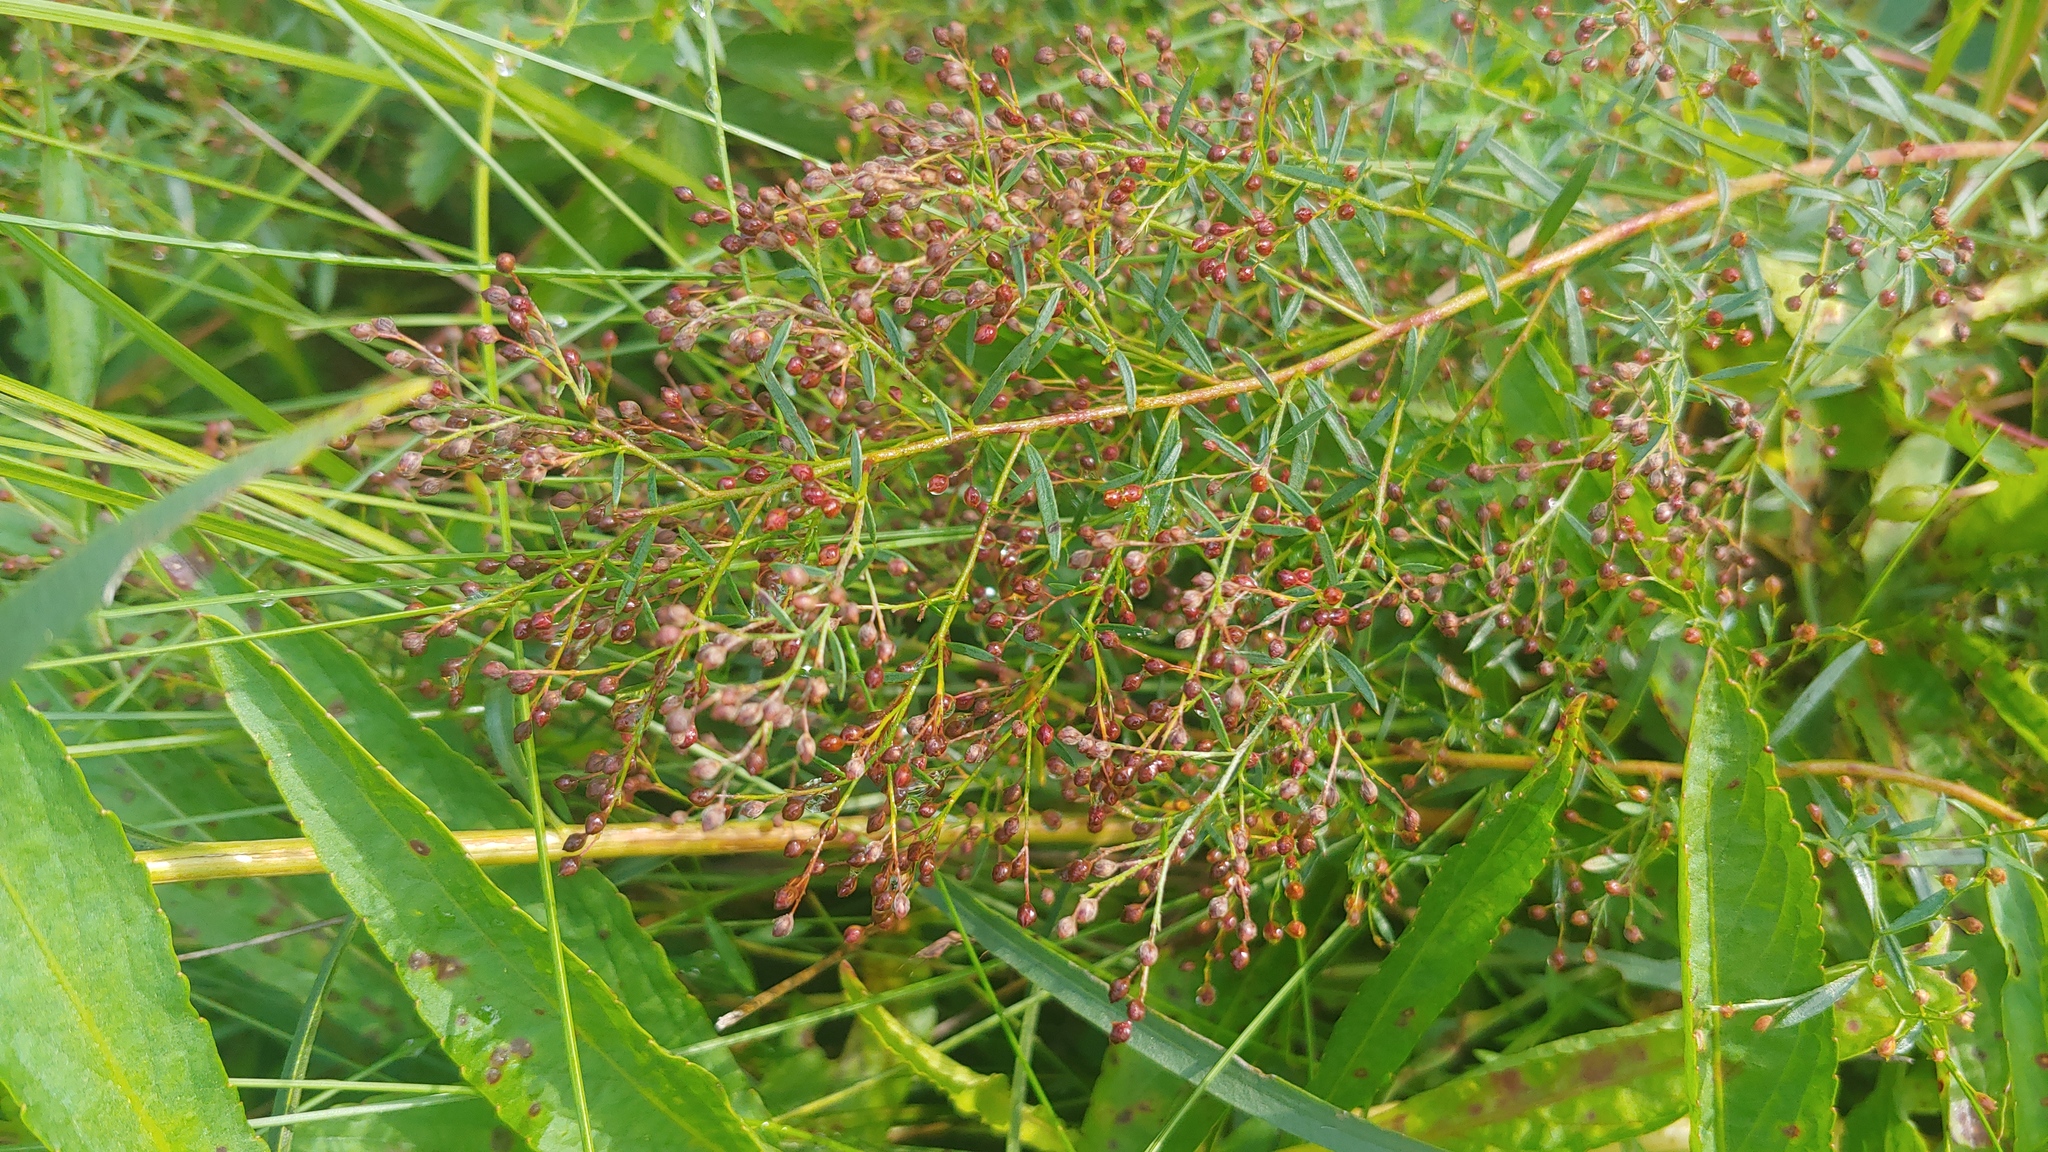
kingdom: Plantae
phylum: Tracheophyta
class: Magnoliopsida
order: Malvales
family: Cistaceae
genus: Lechea
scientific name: Lechea mucronata
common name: Hairy pinweed
